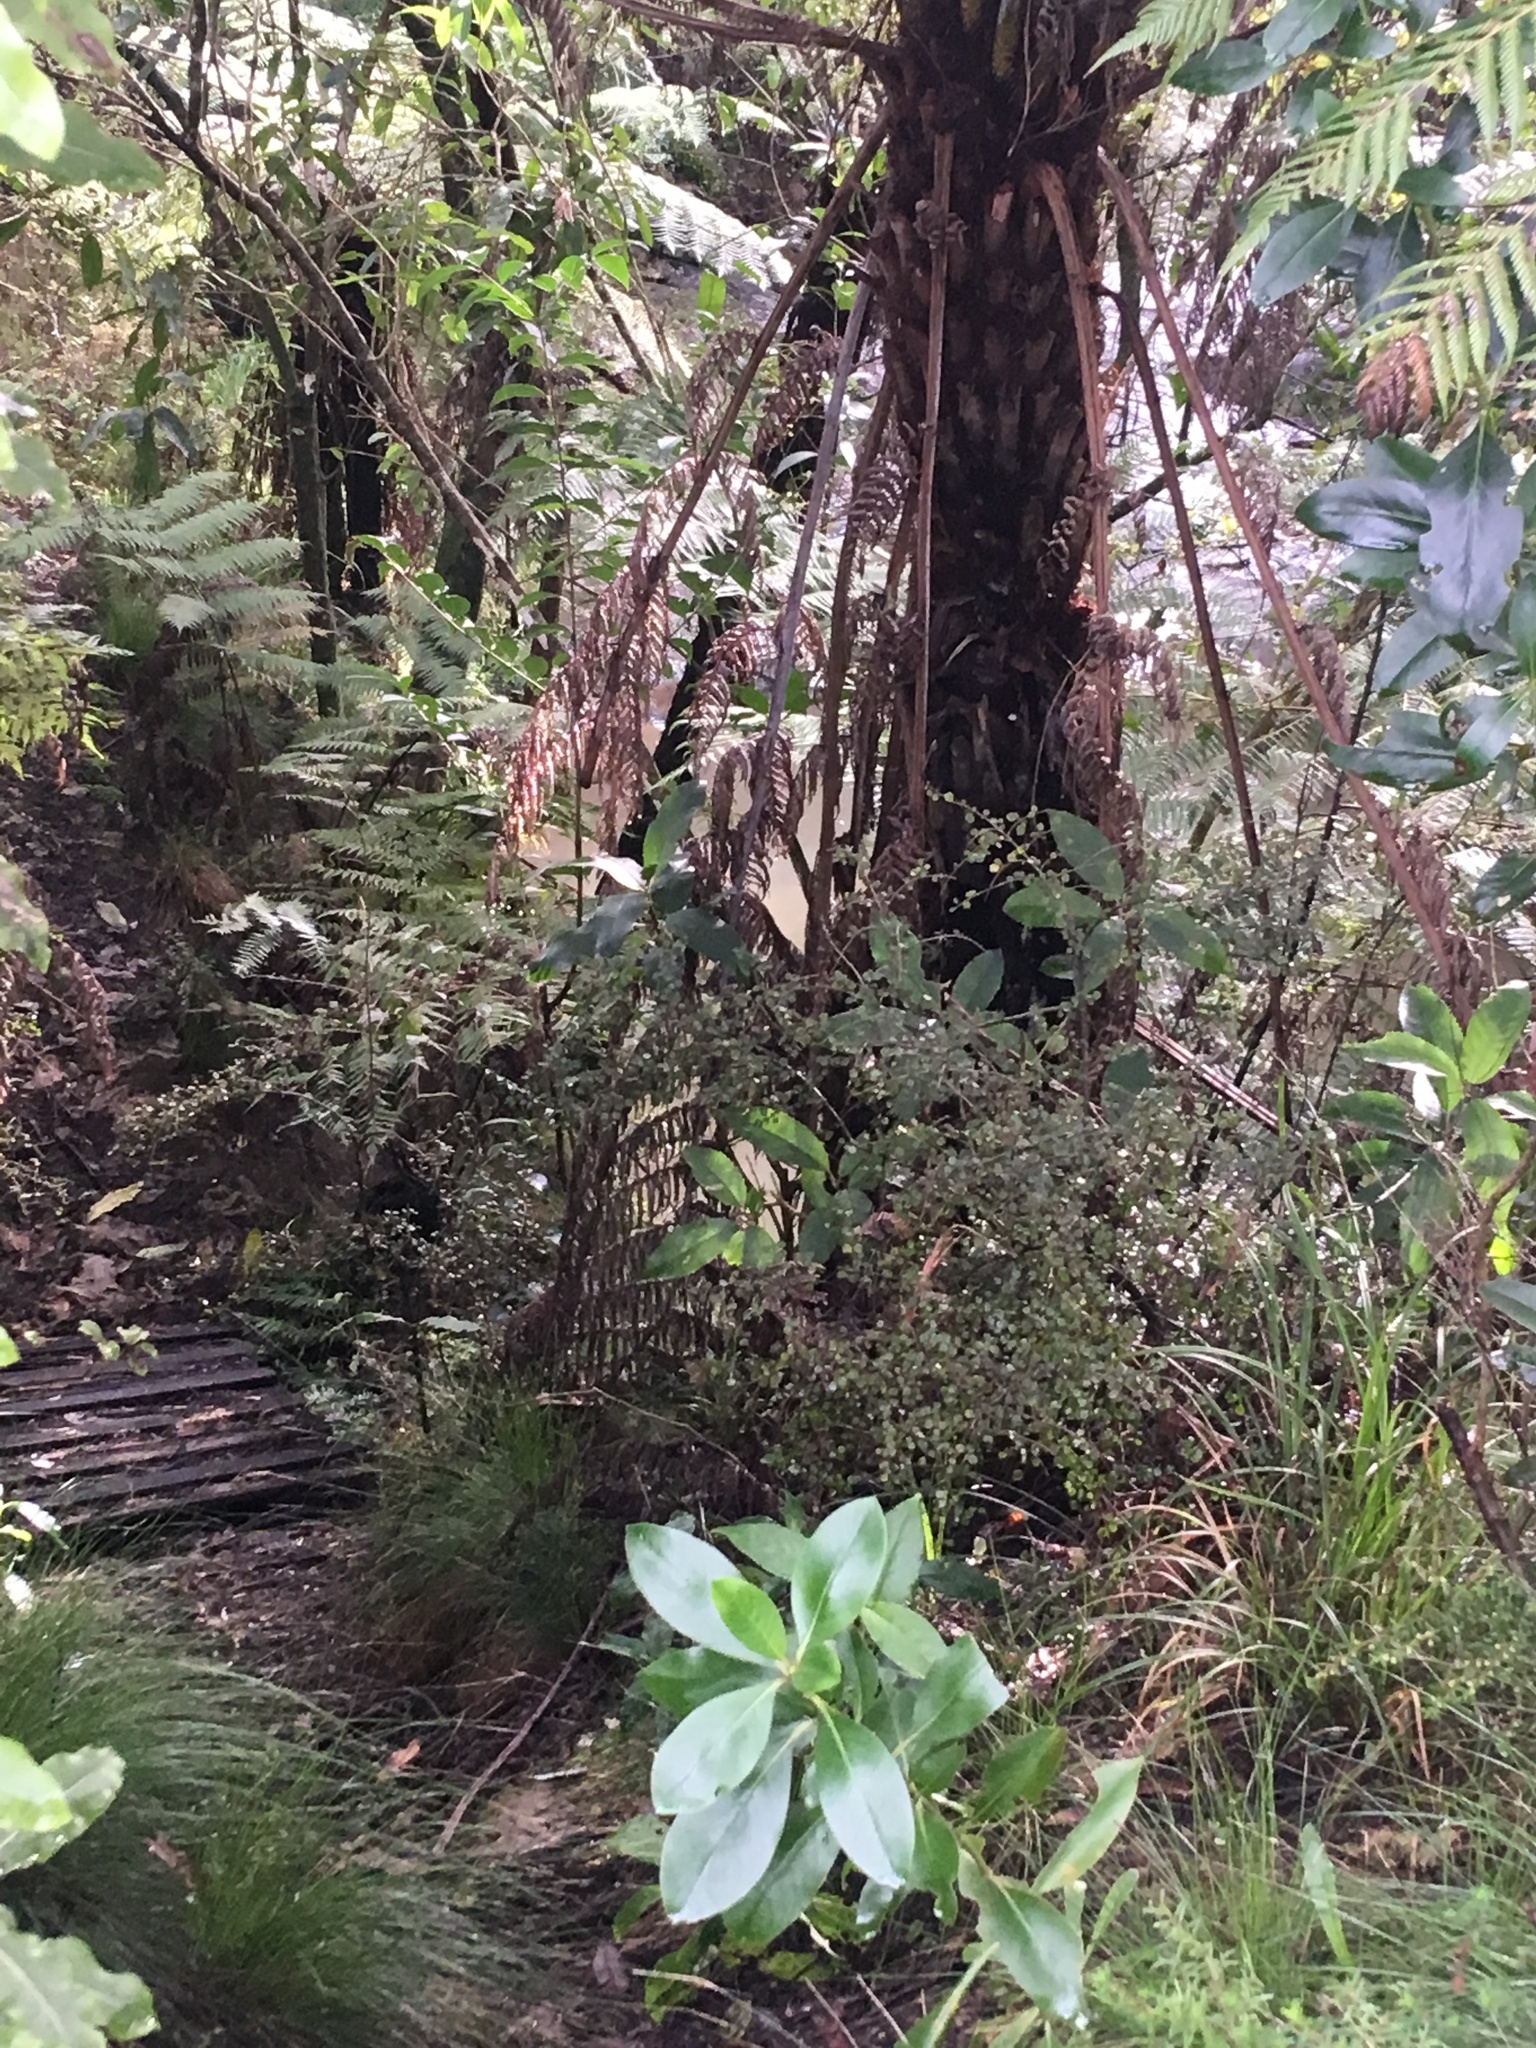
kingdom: Plantae
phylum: Tracheophyta
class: Magnoliopsida
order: Gentianales
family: Rubiaceae
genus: Coprosma
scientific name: Coprosma robusta
